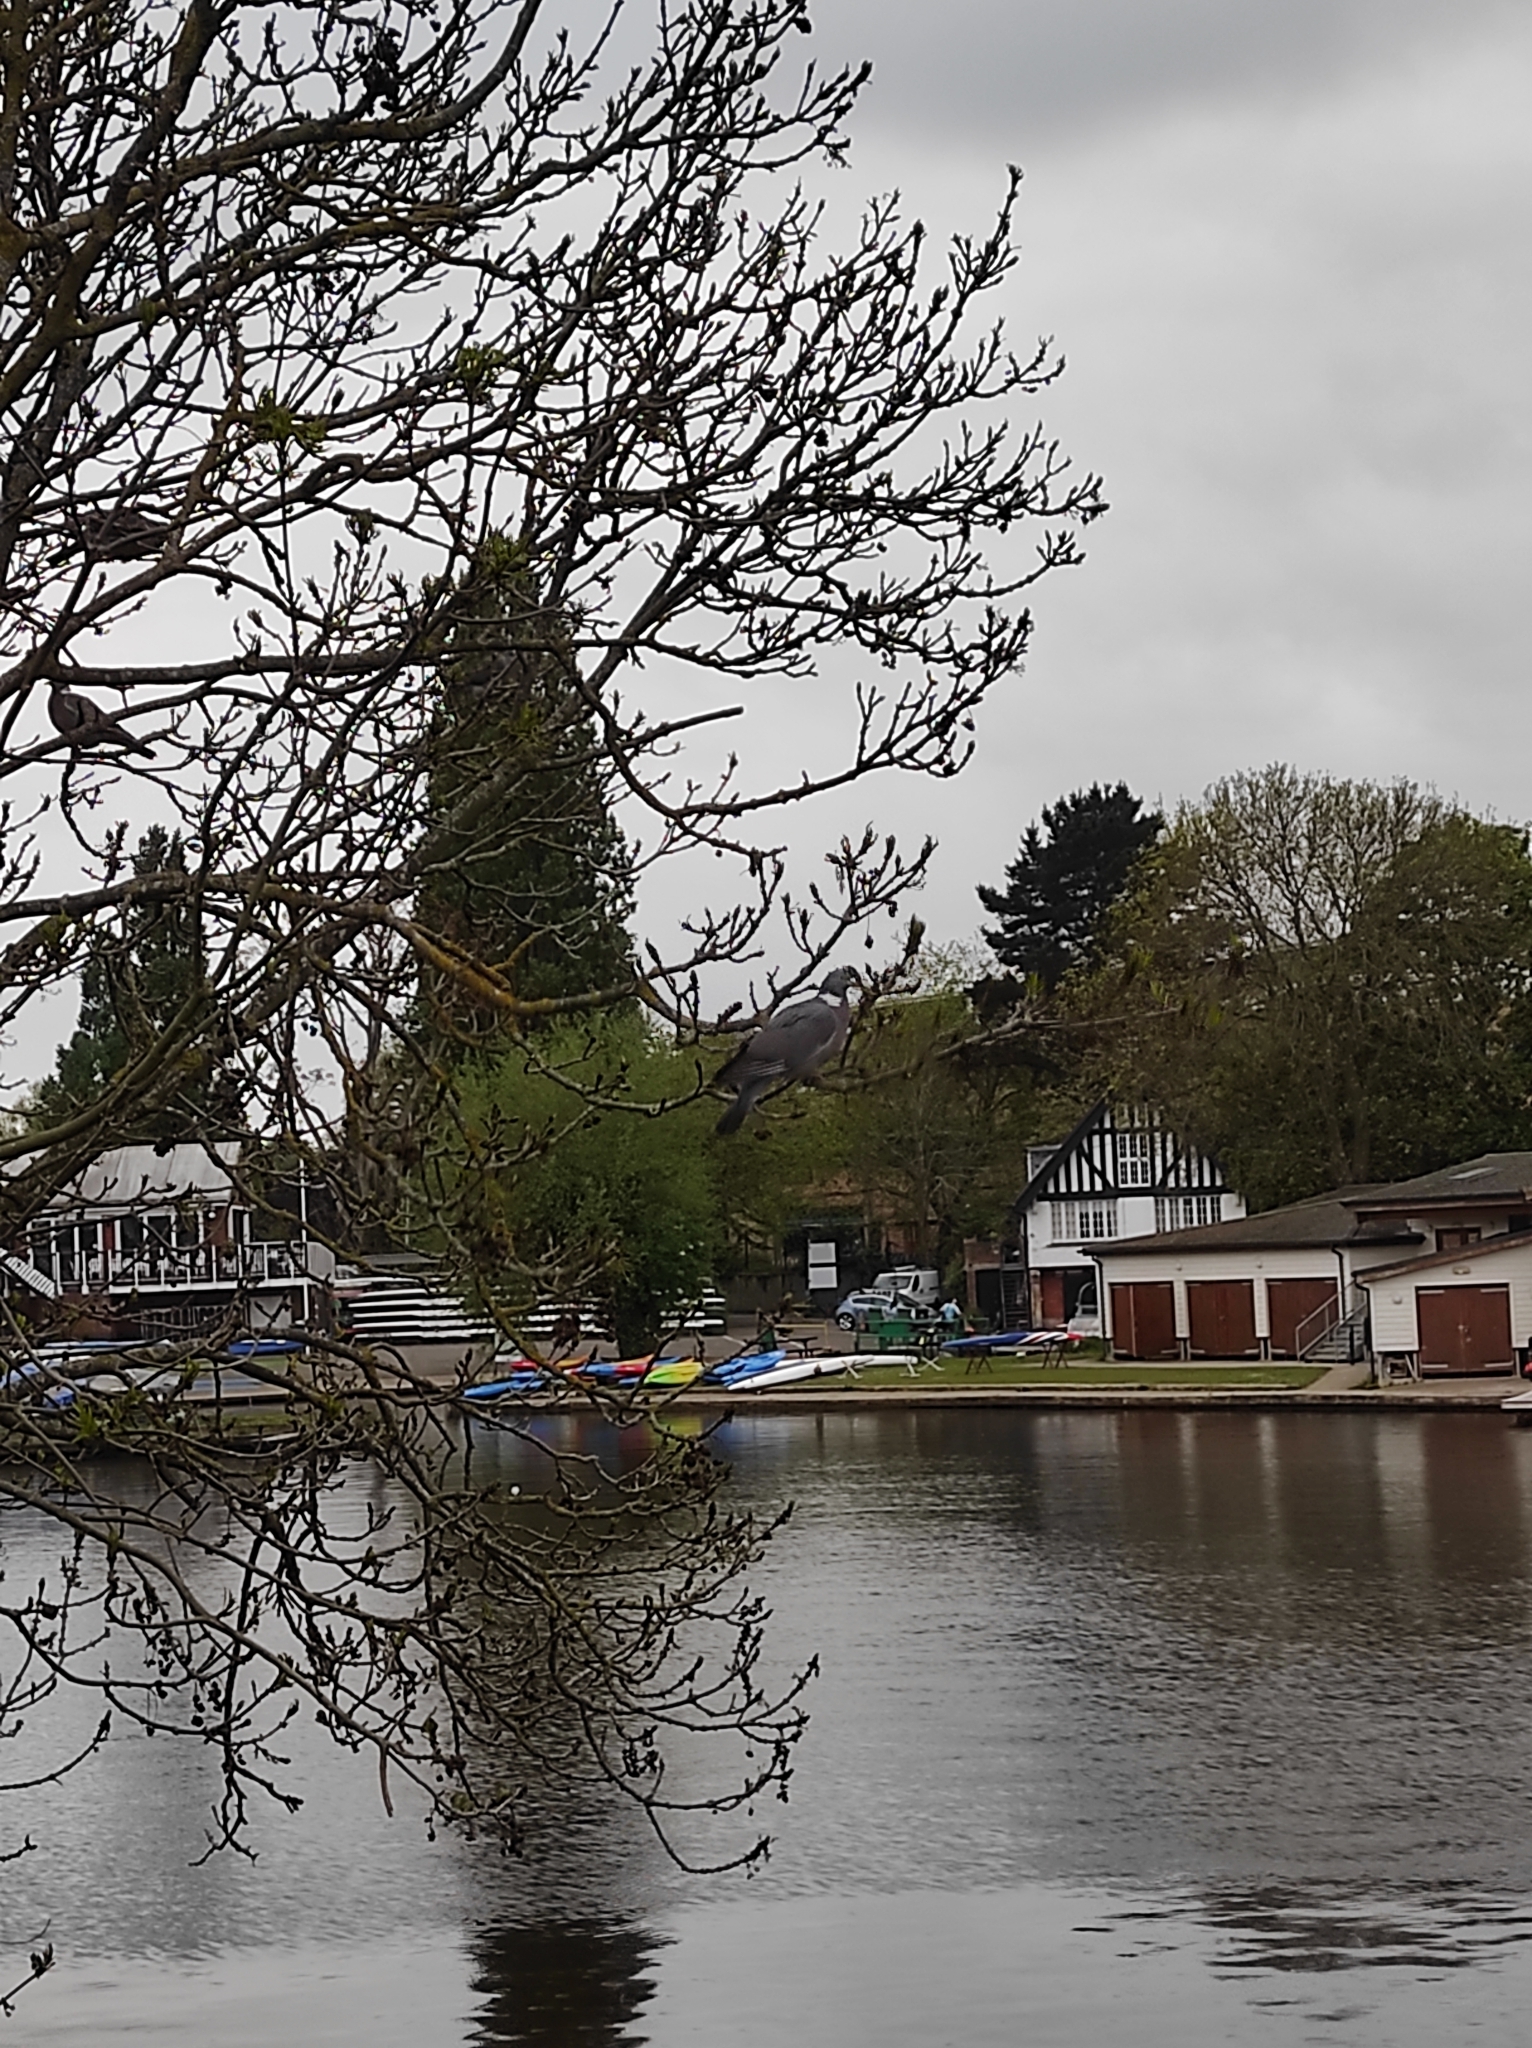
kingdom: Animalia
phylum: Chordata
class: Aves
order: Columbiformes
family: Columbidae
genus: Columba
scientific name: Columba palumbus
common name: Common wood pigeon
